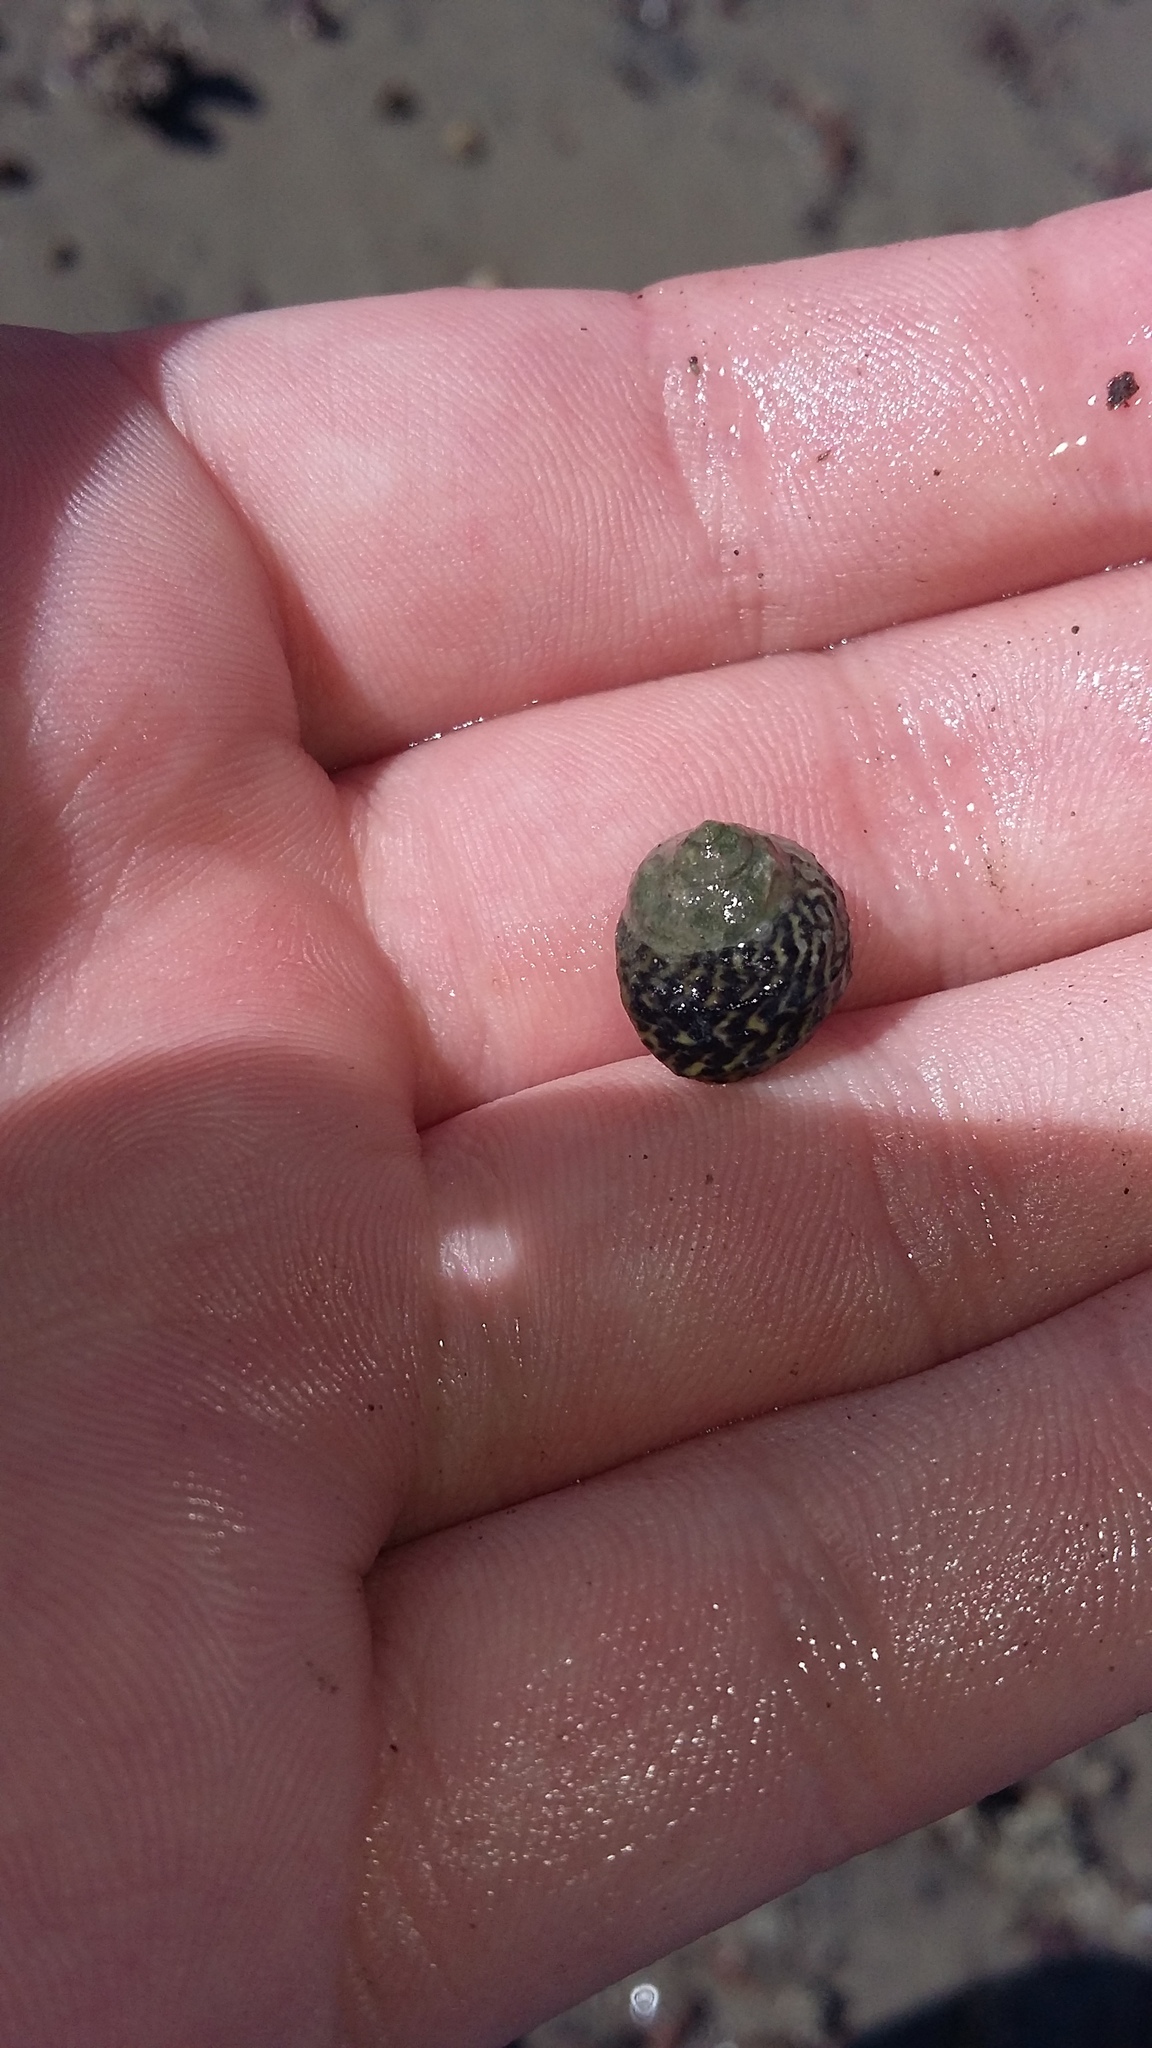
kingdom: Animalia
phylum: Mollusca
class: Gastropoda
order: Trochida
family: Trochidae
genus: Diloma
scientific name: Diloma subrostratum
